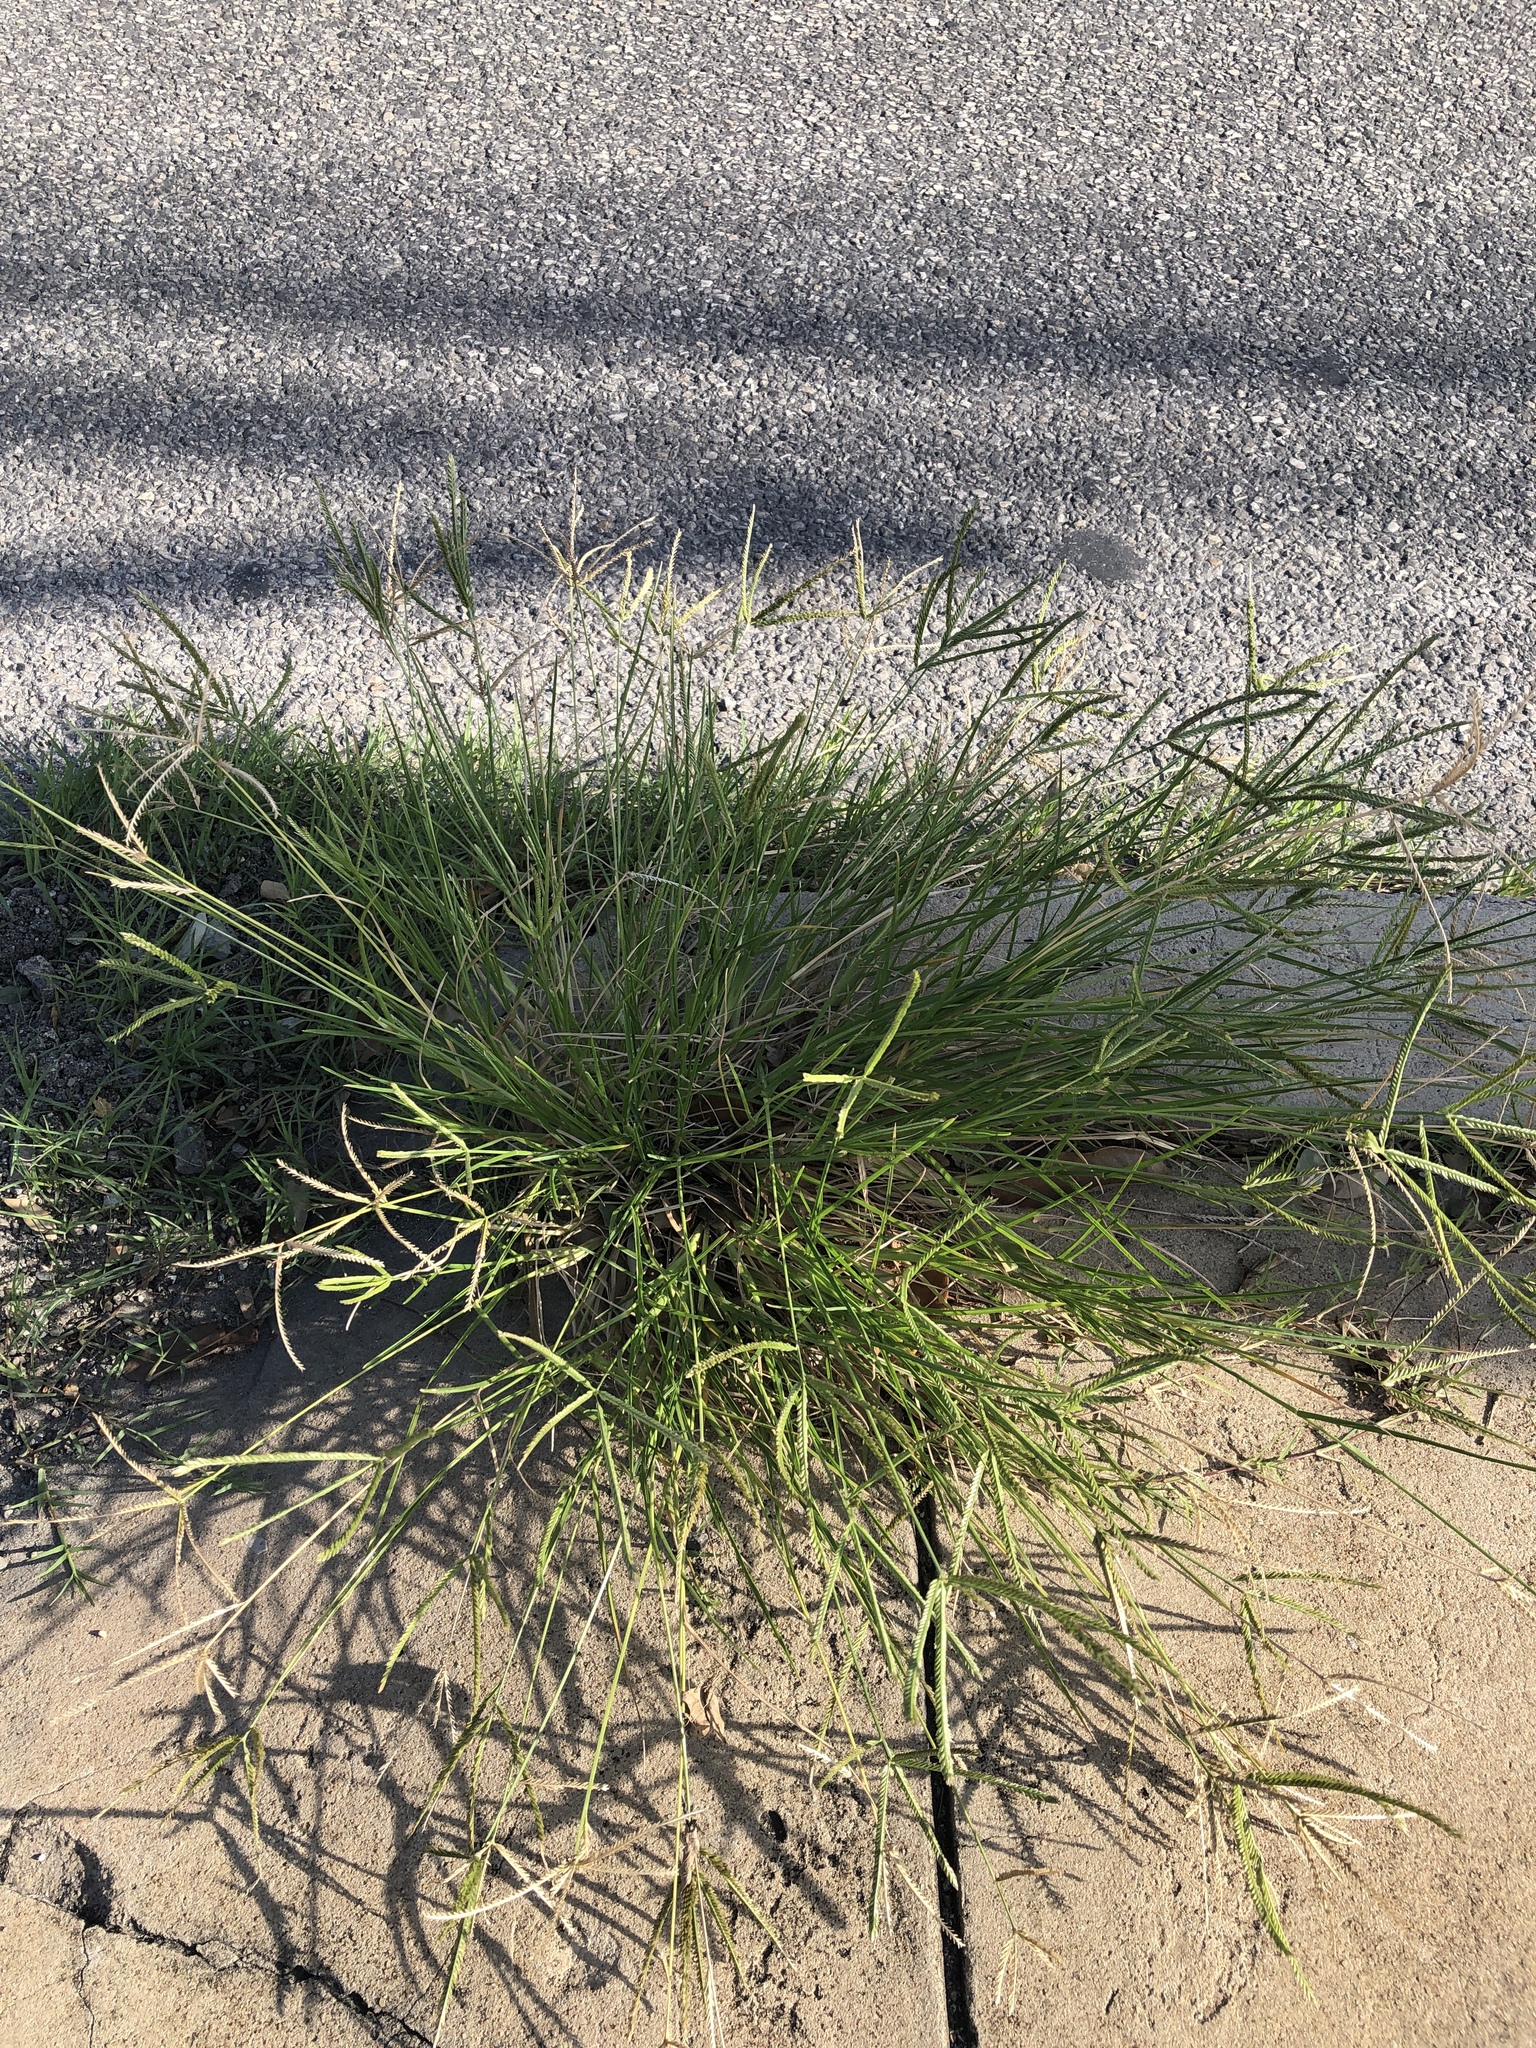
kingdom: Plantae
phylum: Tracheophyta
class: Liliopsida
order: Poales
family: Poaceae
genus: Eleusine
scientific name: Eleusine indica
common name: Yard-grass
